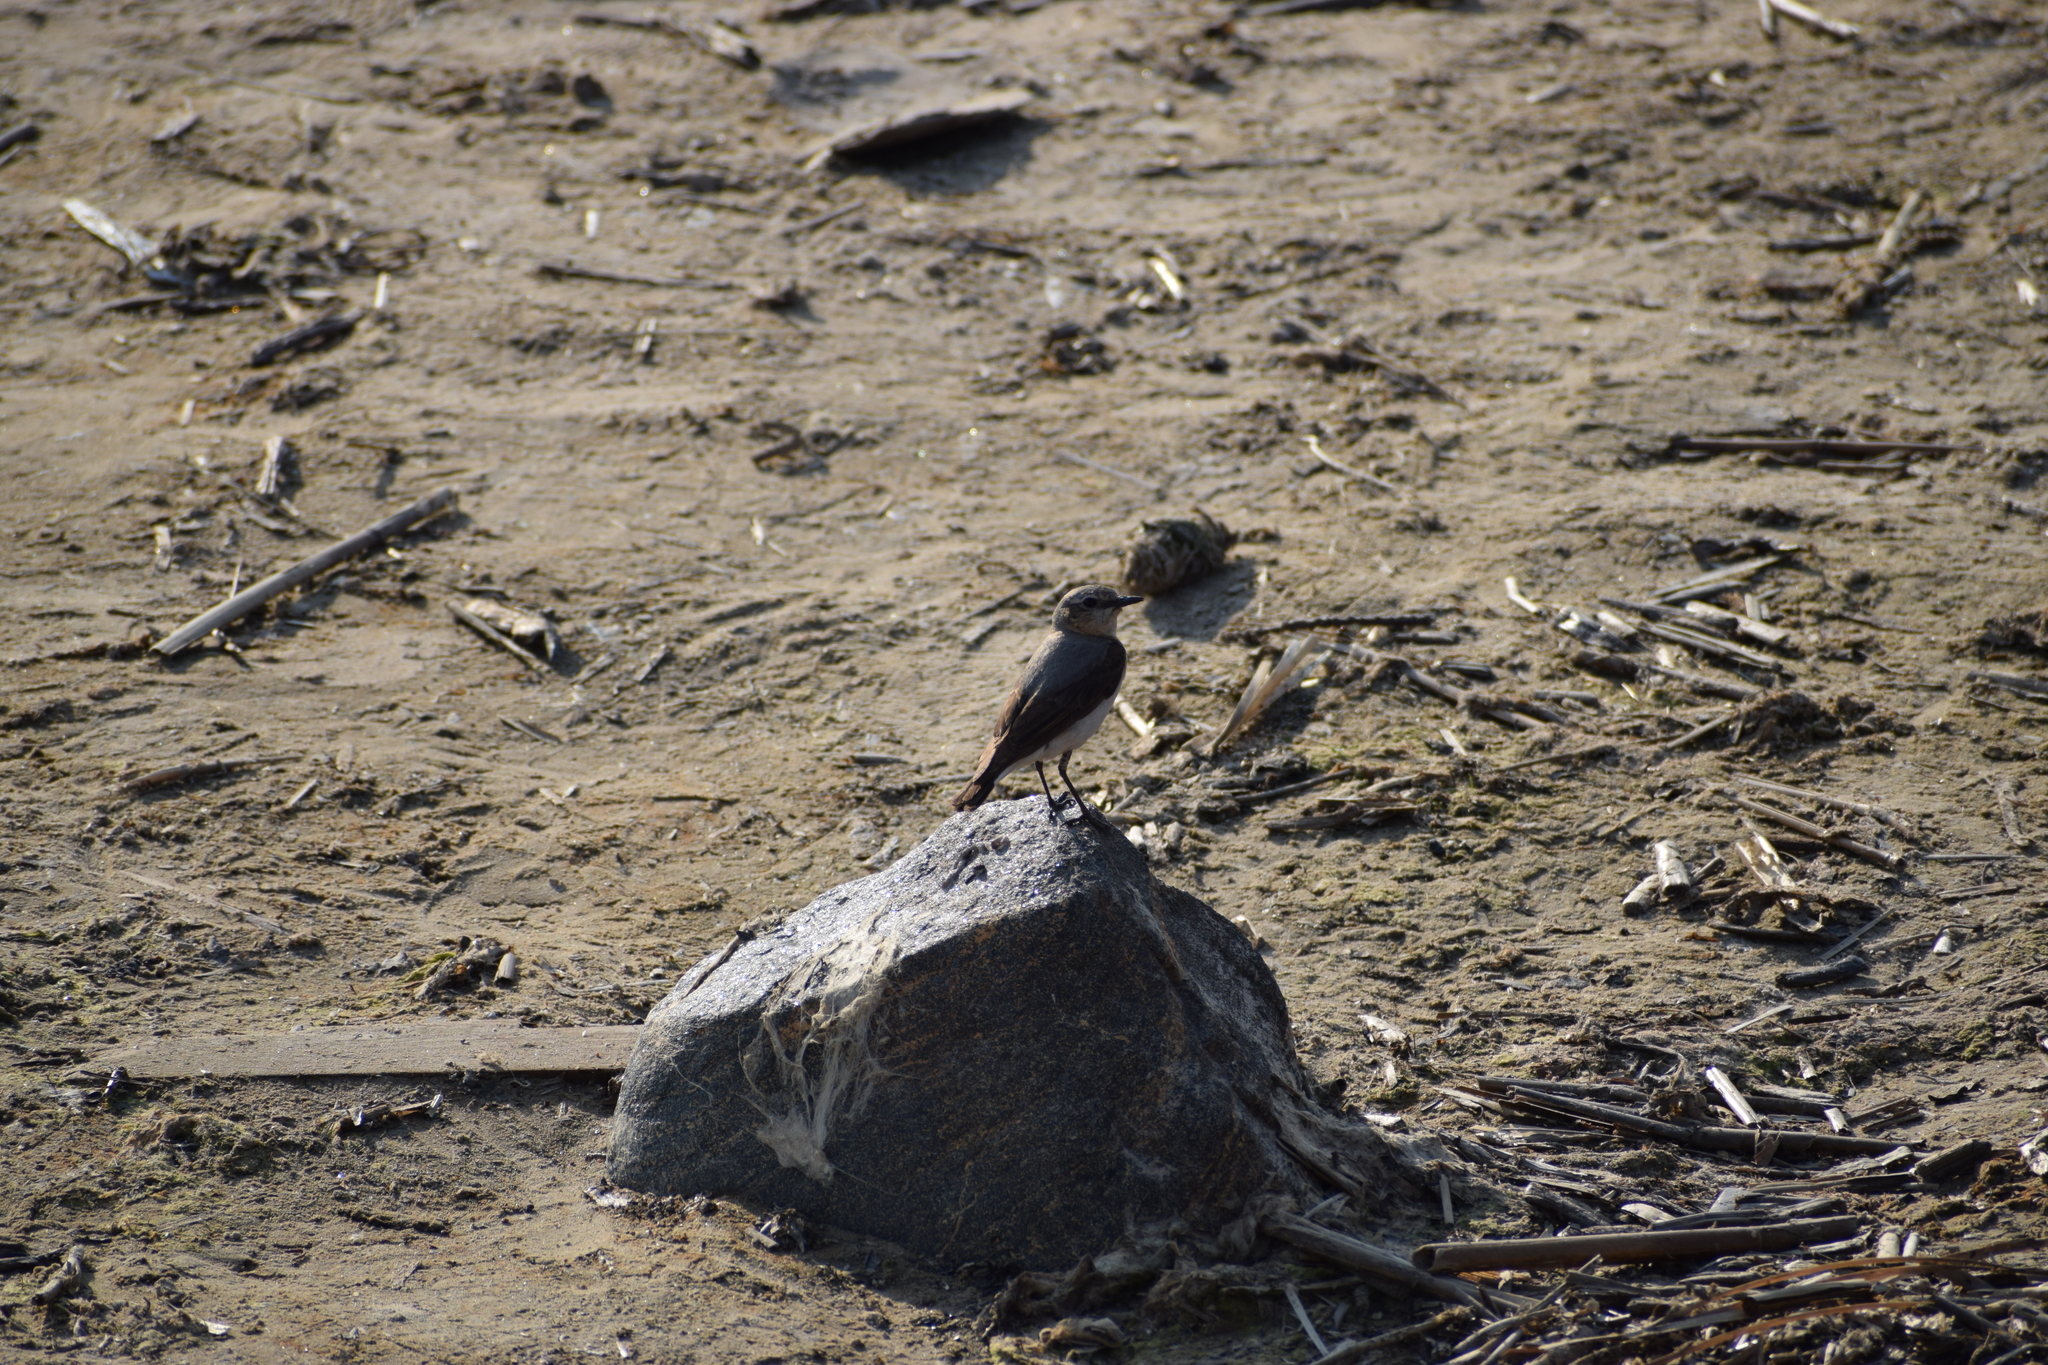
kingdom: Animalia
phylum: Chordata
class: Aves
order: Passeriformes
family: Muscicapidae
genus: Oenanthe
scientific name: Oenanthe oenanthe
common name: Northern wheatear
